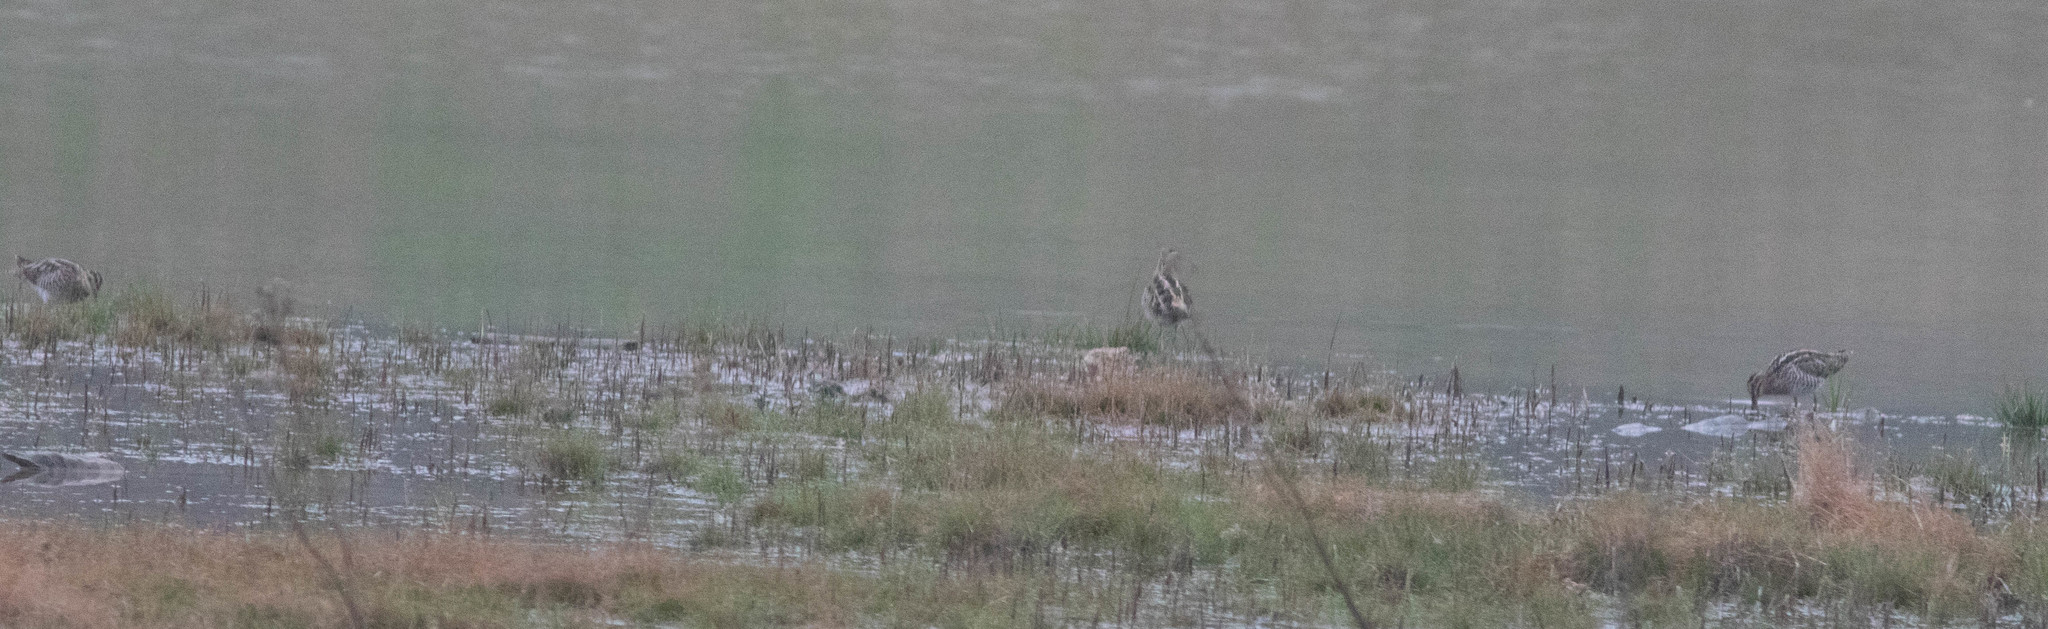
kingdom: Animalia
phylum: Chordata
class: Aves
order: Charadriiformes
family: Scolopacidae
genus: Gallinago
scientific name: Gallinago delicata
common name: Wilson's snipe
